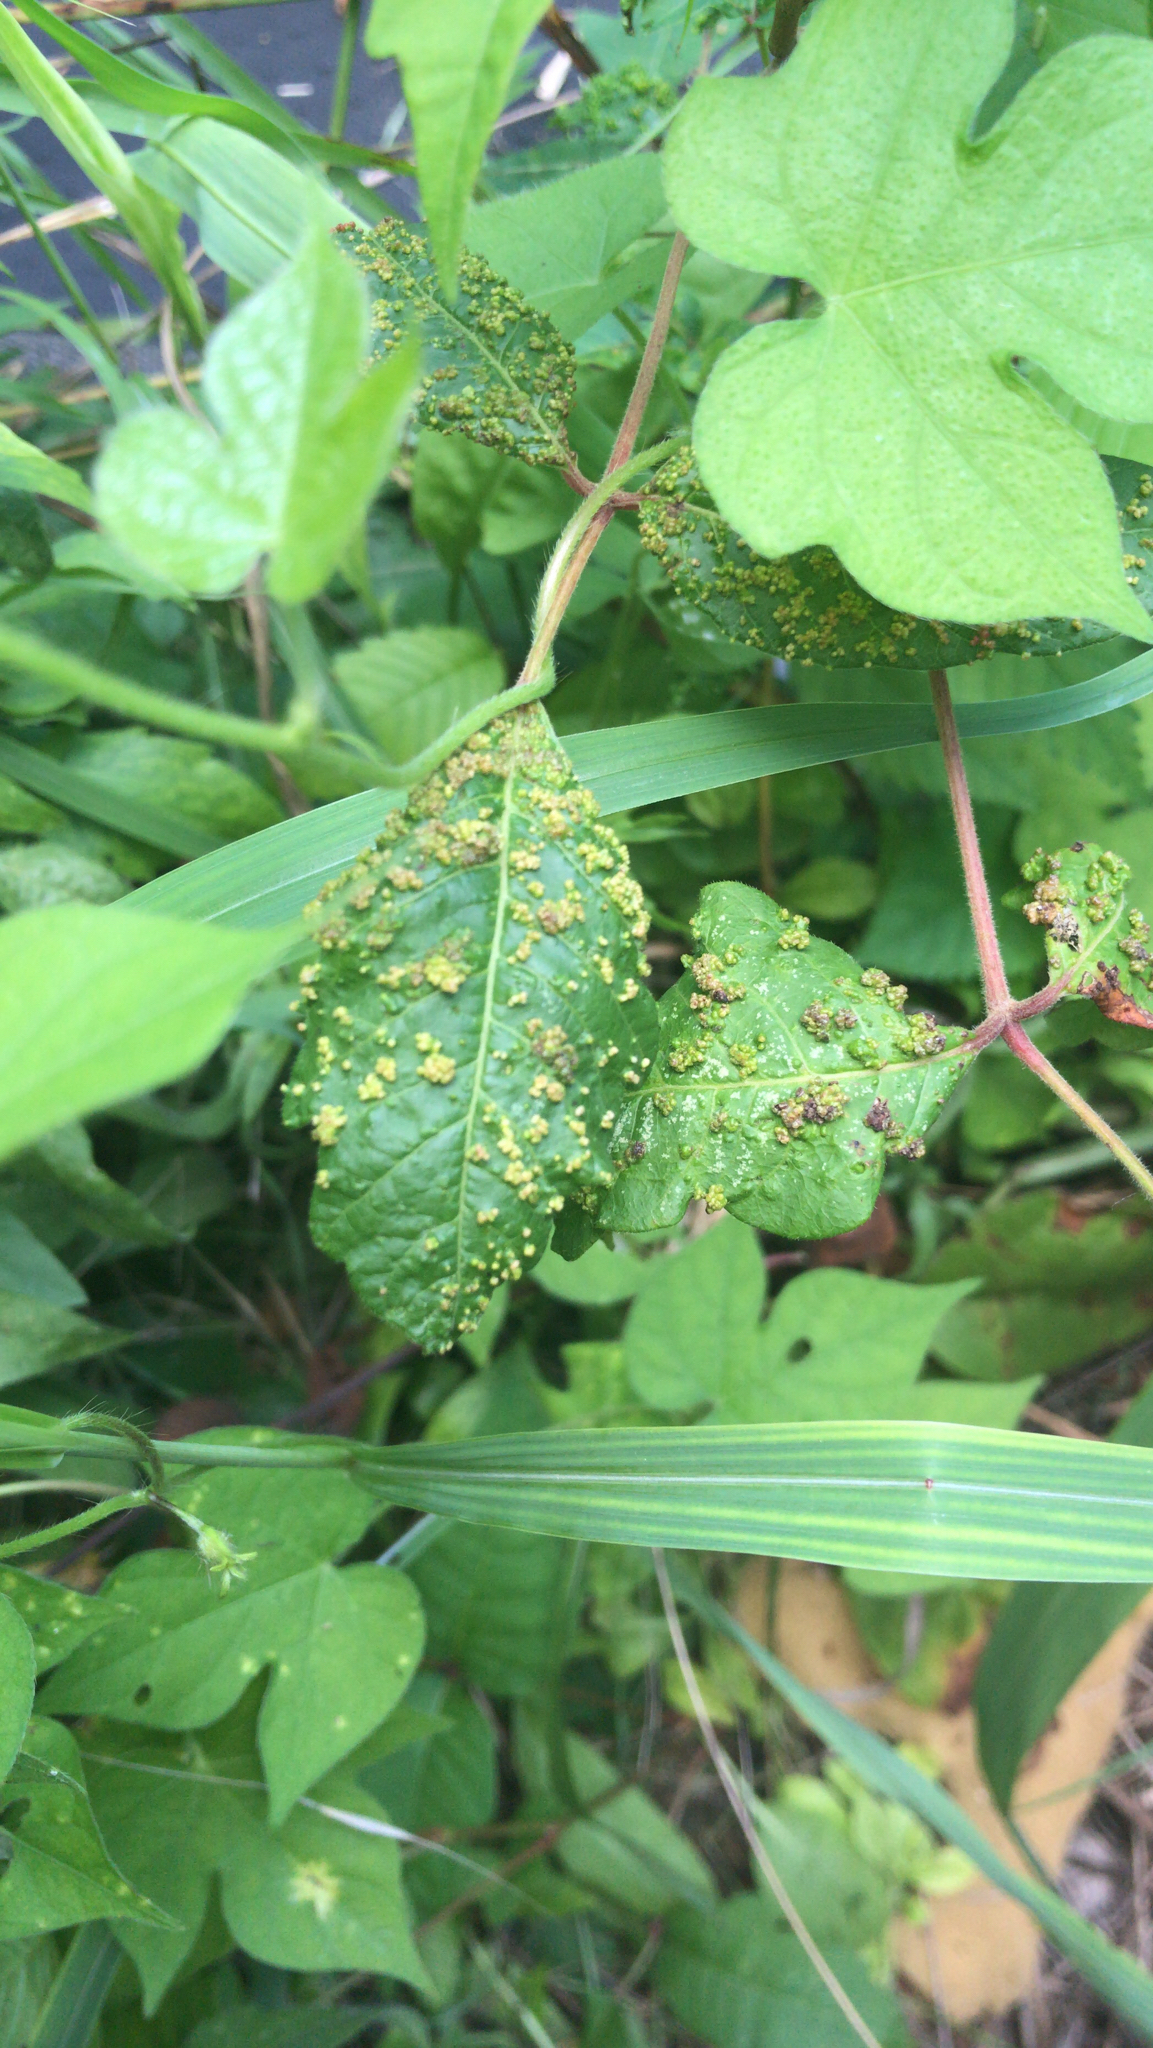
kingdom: Animalia
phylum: Arthropoda
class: Arachnida
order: Trombidiformes
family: Eriophyidae
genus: Aculops
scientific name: Aculops
